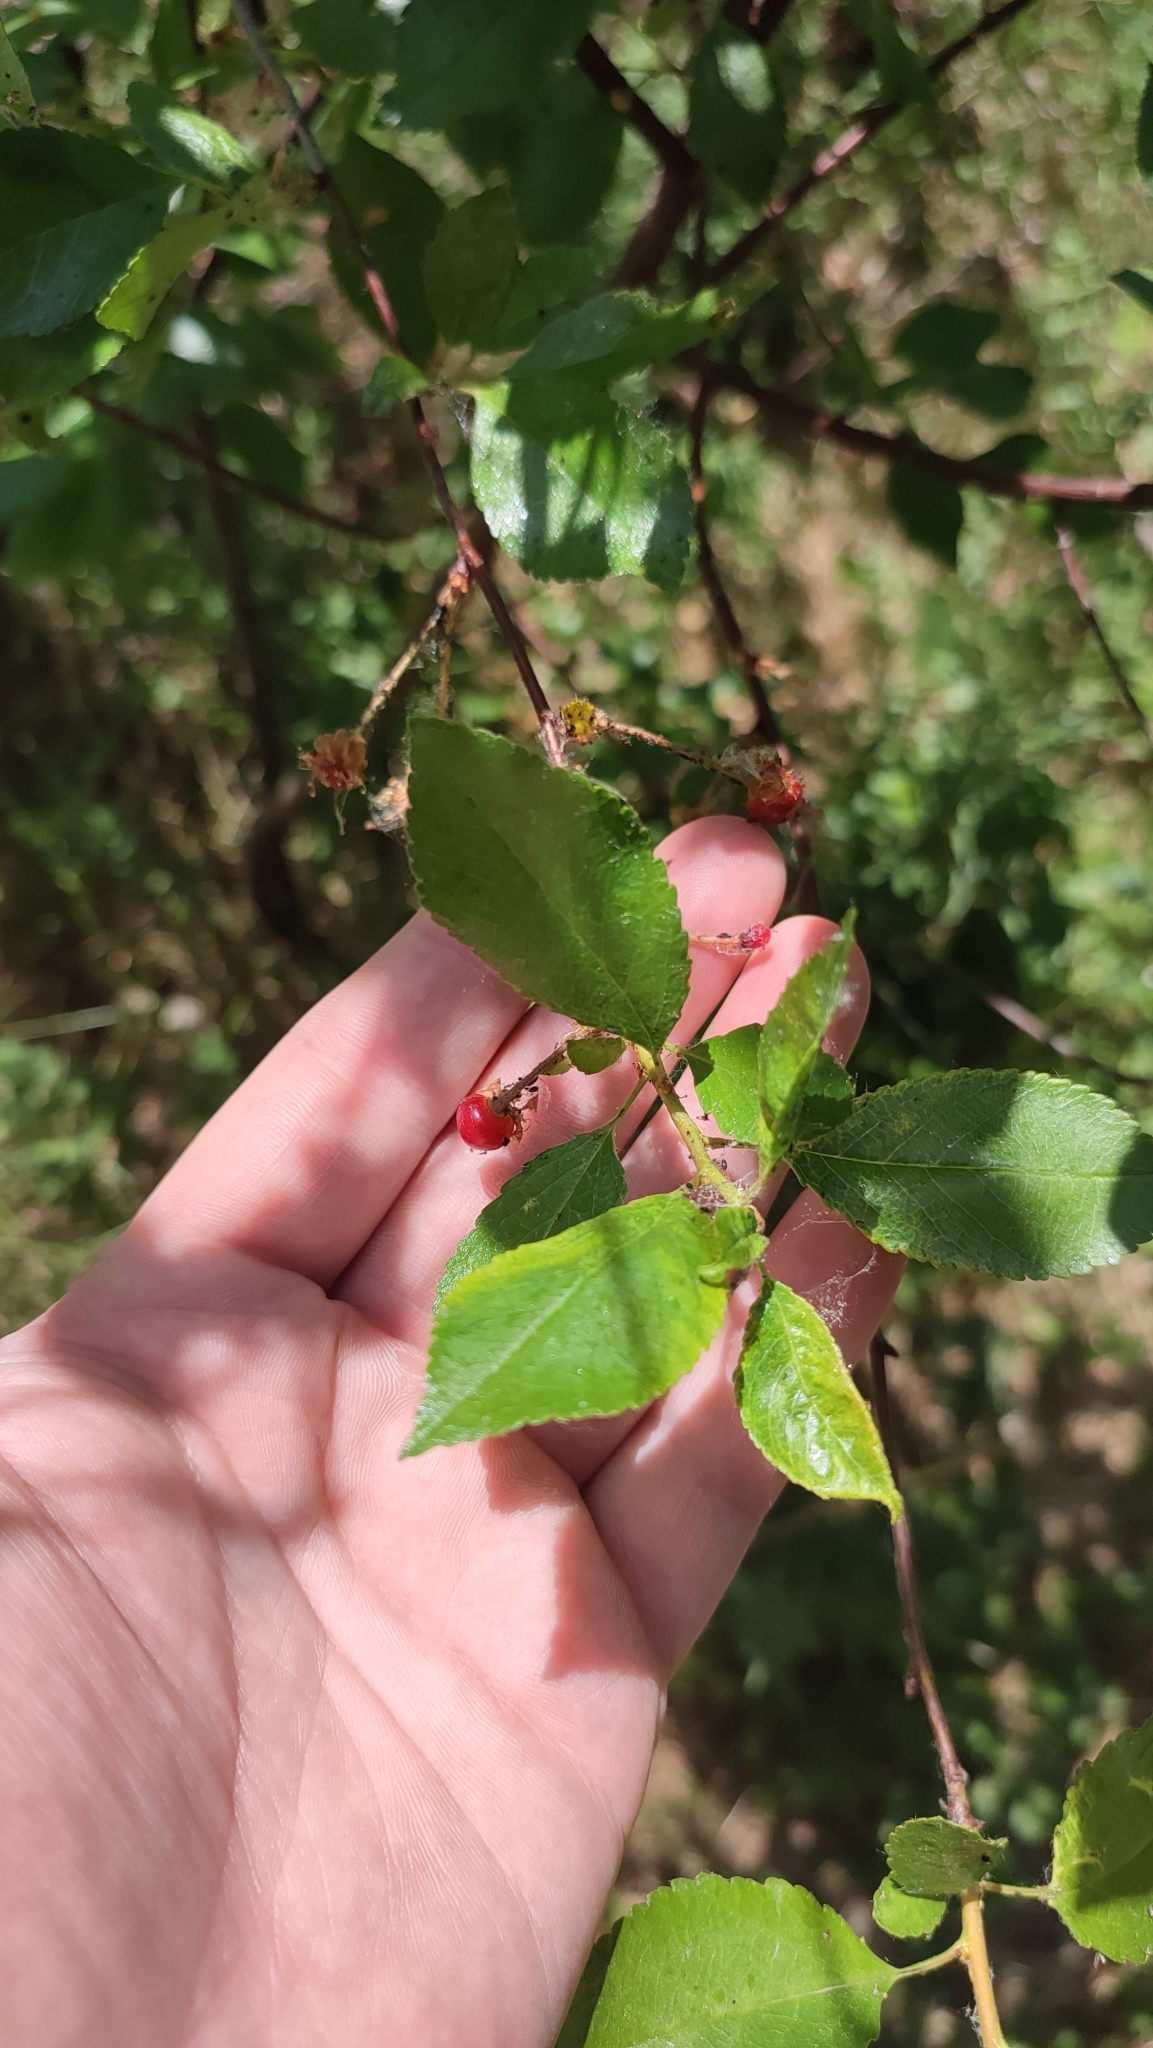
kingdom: Plantae
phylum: Tracheophyta
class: Magnoliopsida
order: Rosales
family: Rosaceae
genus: Prunus
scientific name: Prunus cerasus
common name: Morello cherry
